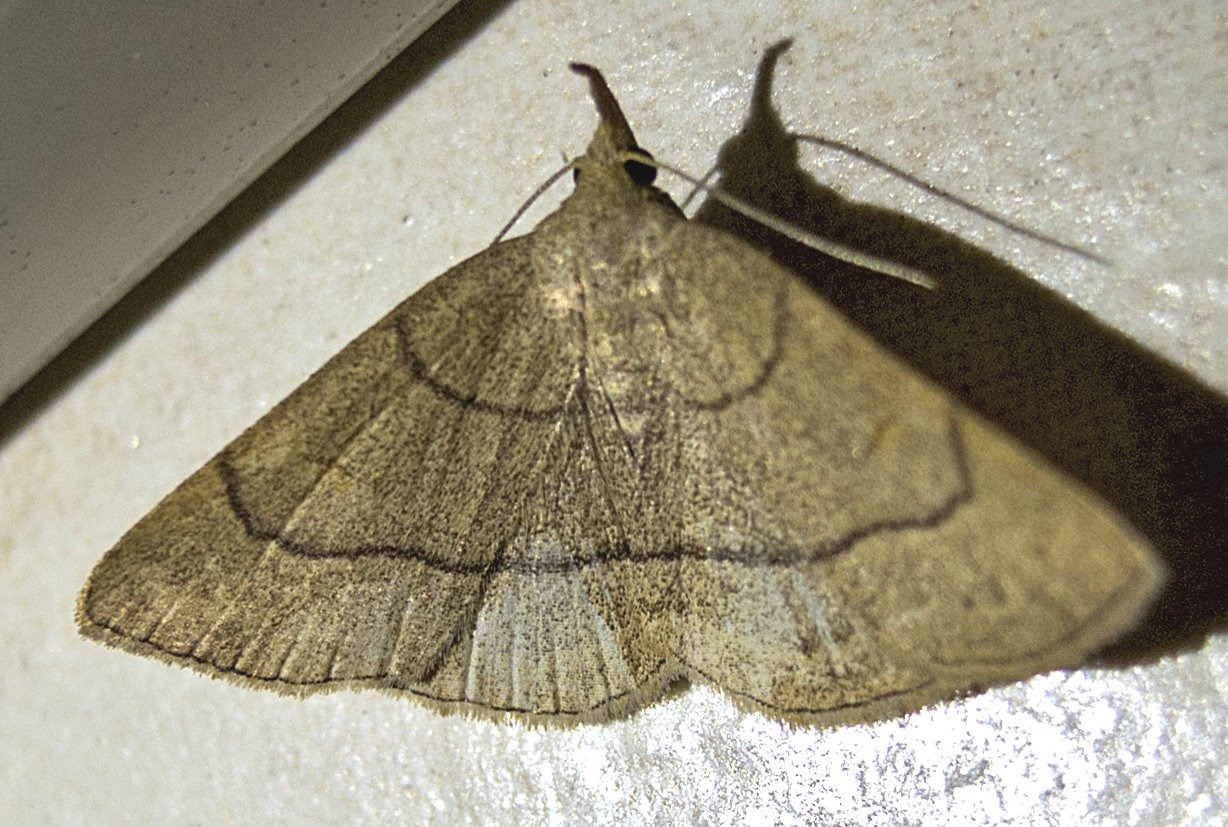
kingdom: Animalia
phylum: Arthropoda
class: Insecta
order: Lepidoptera
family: Erebidae
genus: Paracolax
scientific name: Paracolax tristalis
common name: Clay fan-foot
